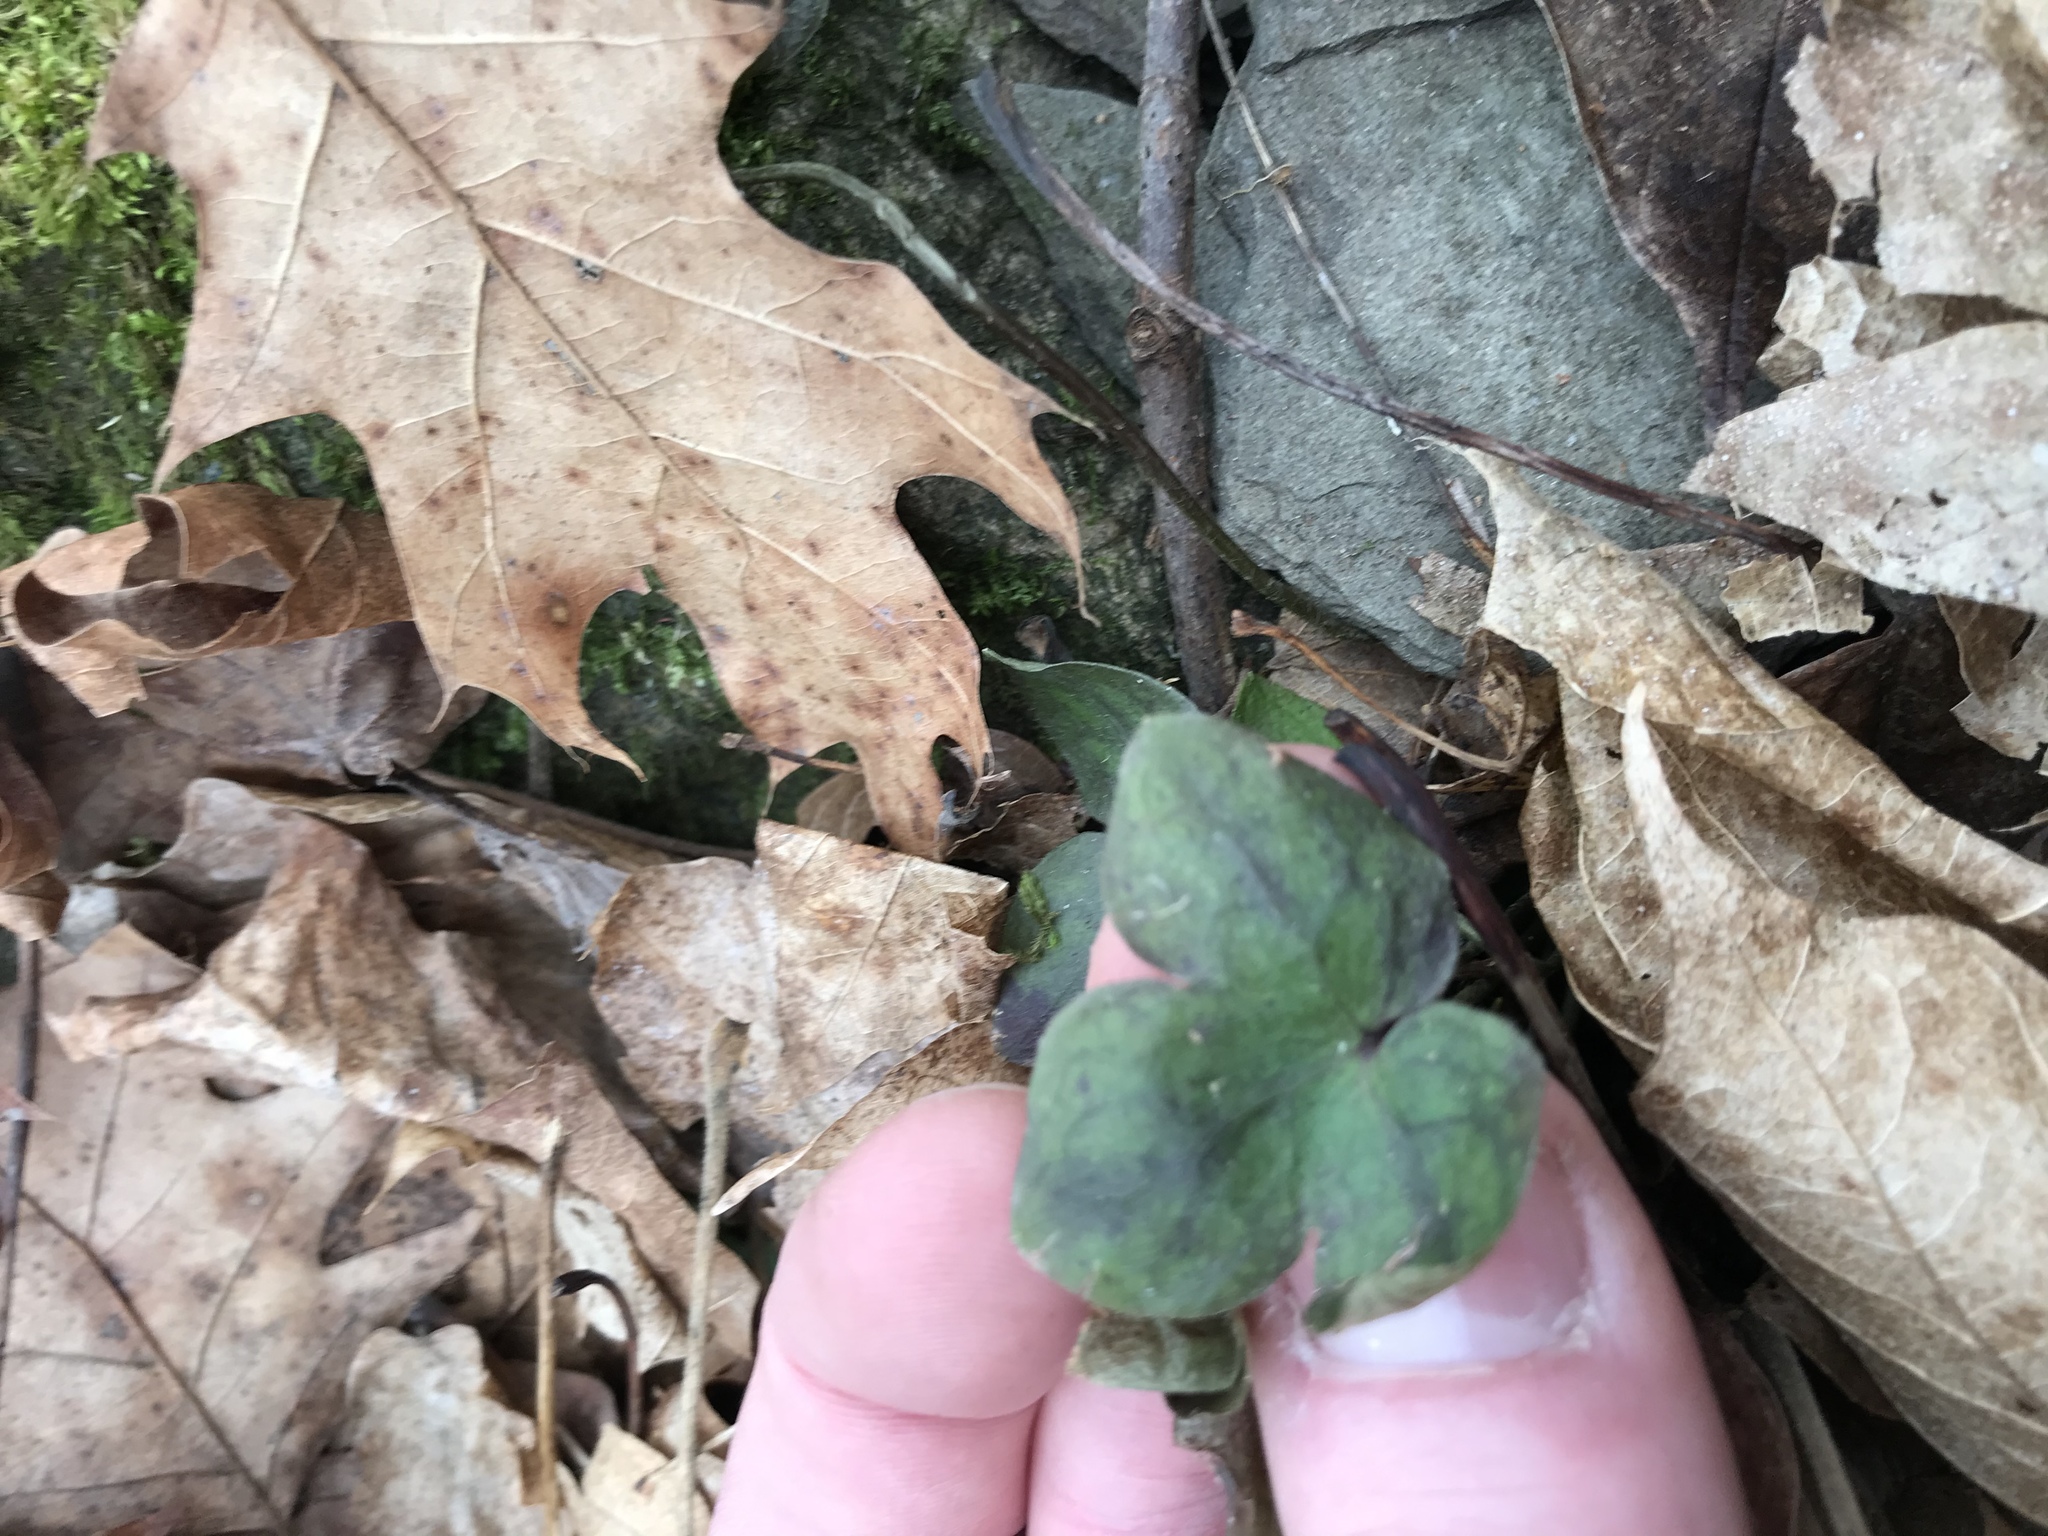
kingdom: Plantae
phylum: Tracheophyta
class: Magnoliopsida
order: Ranunculales
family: Ranunculaceae
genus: Hepatica
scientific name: Hepatica acutiloba
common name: Sharp-lobed hepatica
